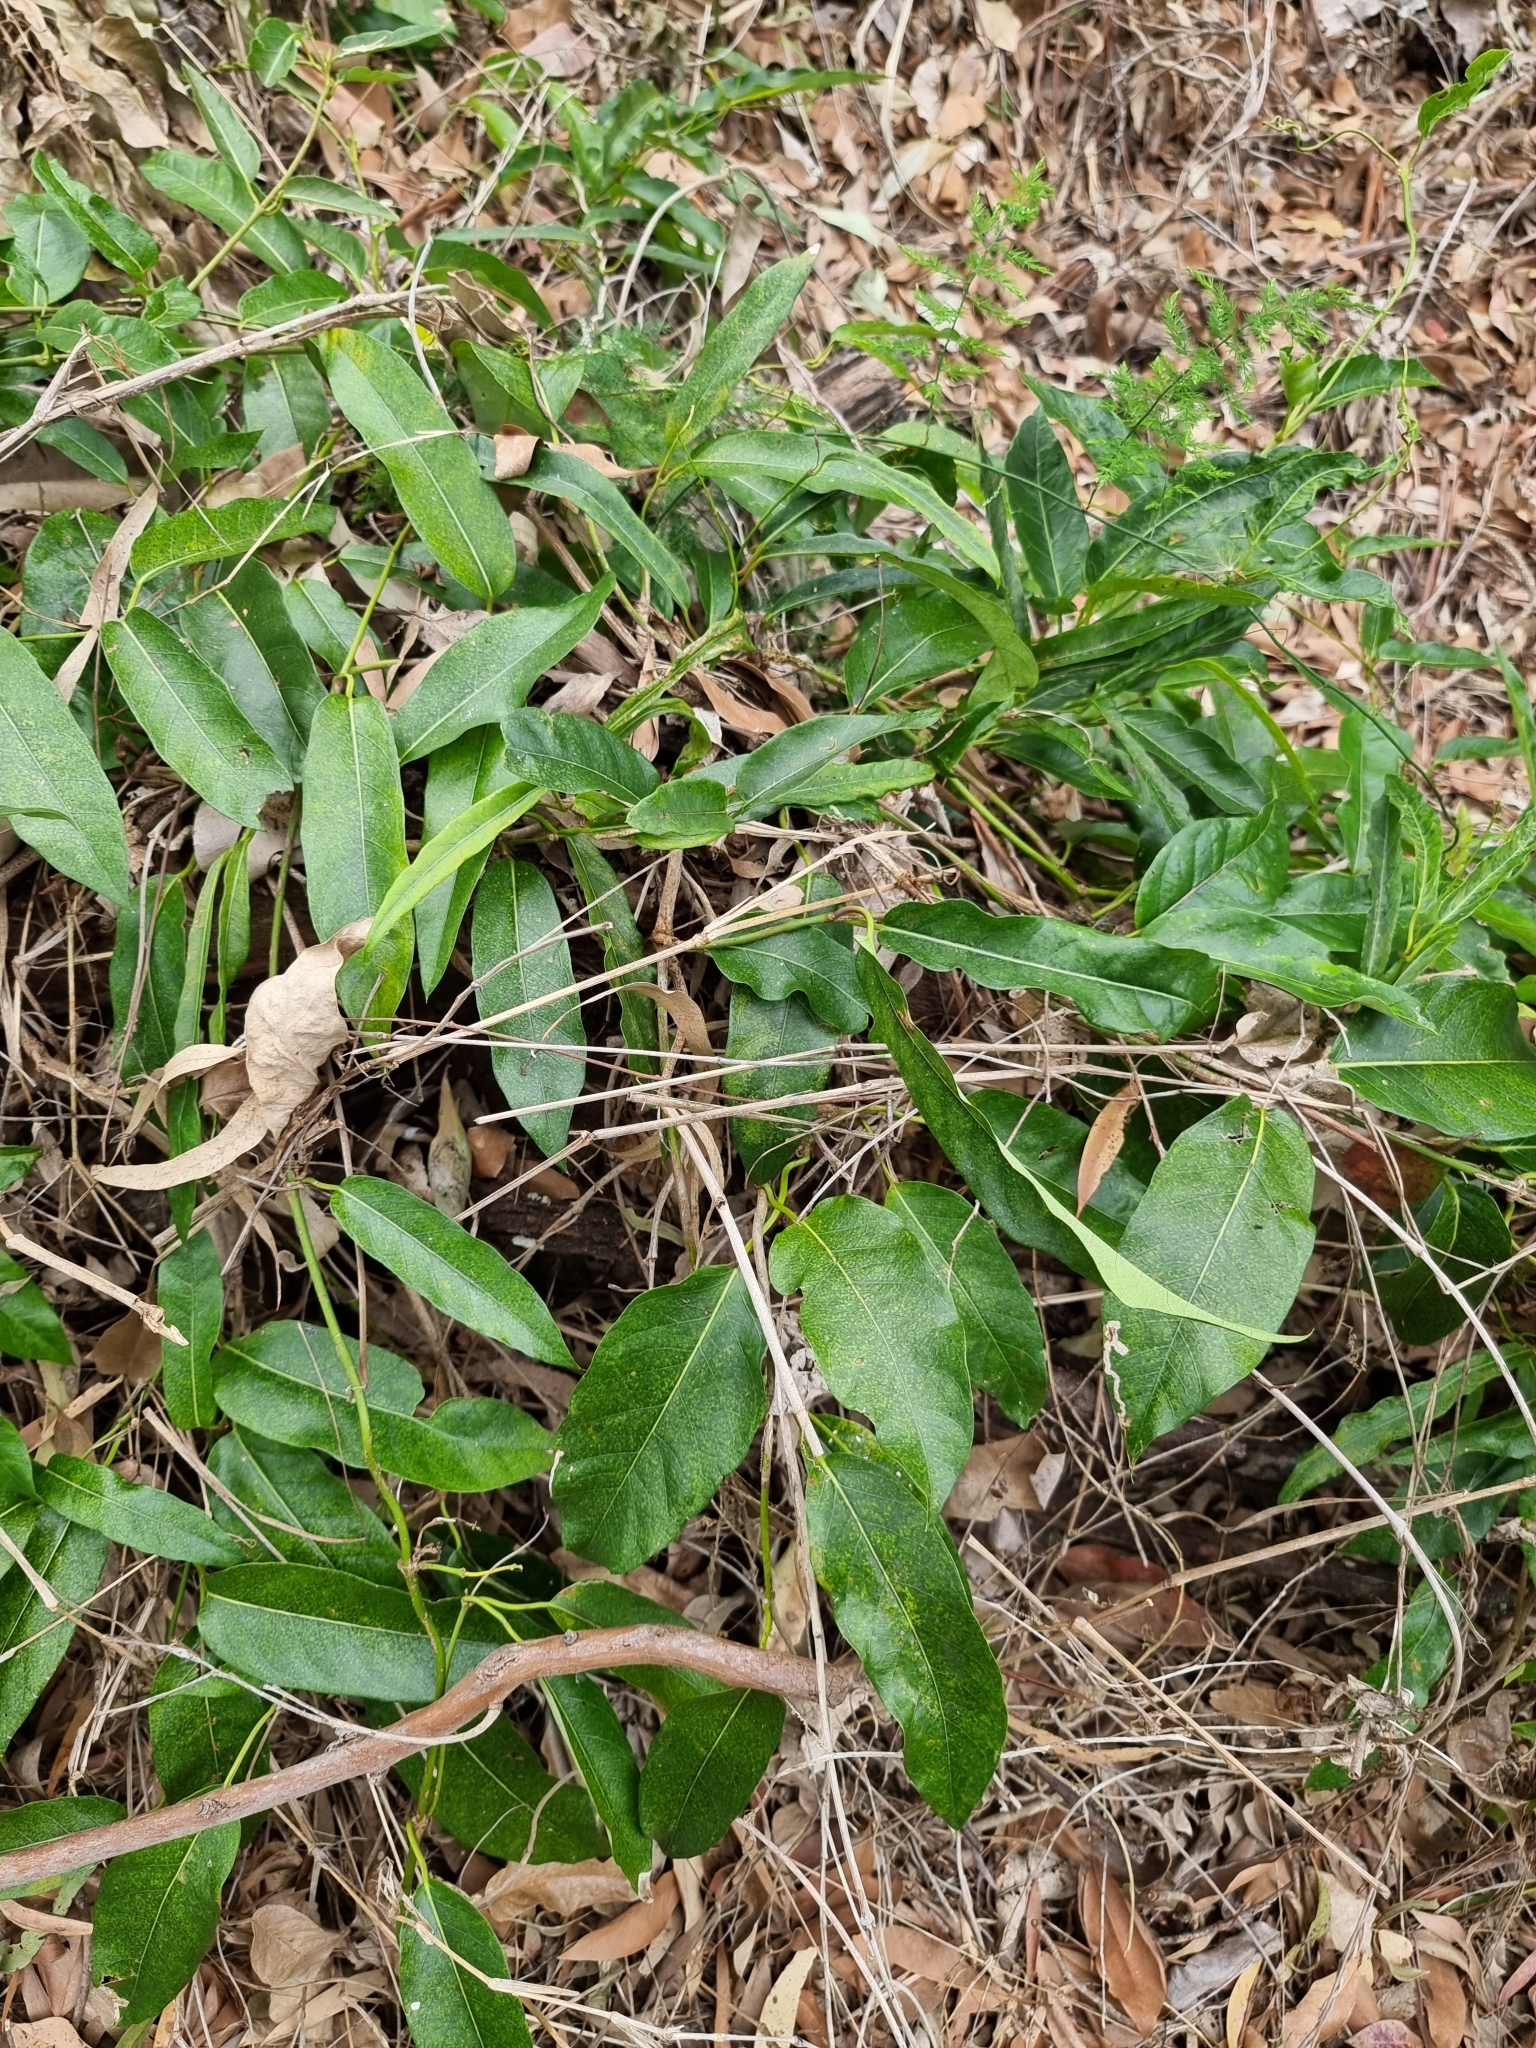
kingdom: Plantae
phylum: Tracheophyta
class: Magnoliopsida
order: Gentianales
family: Apocynaceae
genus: Parsonsia
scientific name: Parsonsia straminea
